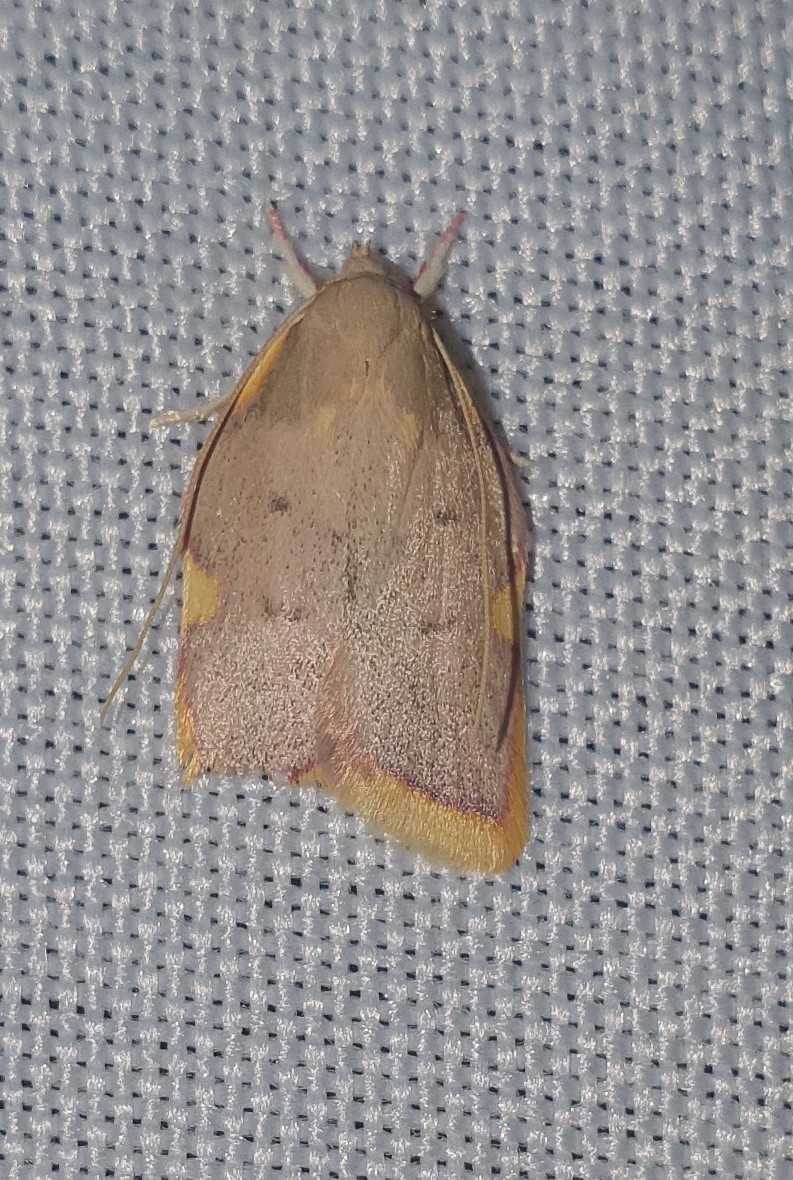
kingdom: Animalia
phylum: Arthropoda
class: Insecta
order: Lepidoptera
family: Peleopodidae
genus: Carcina
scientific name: Carcina quercana
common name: Moth
